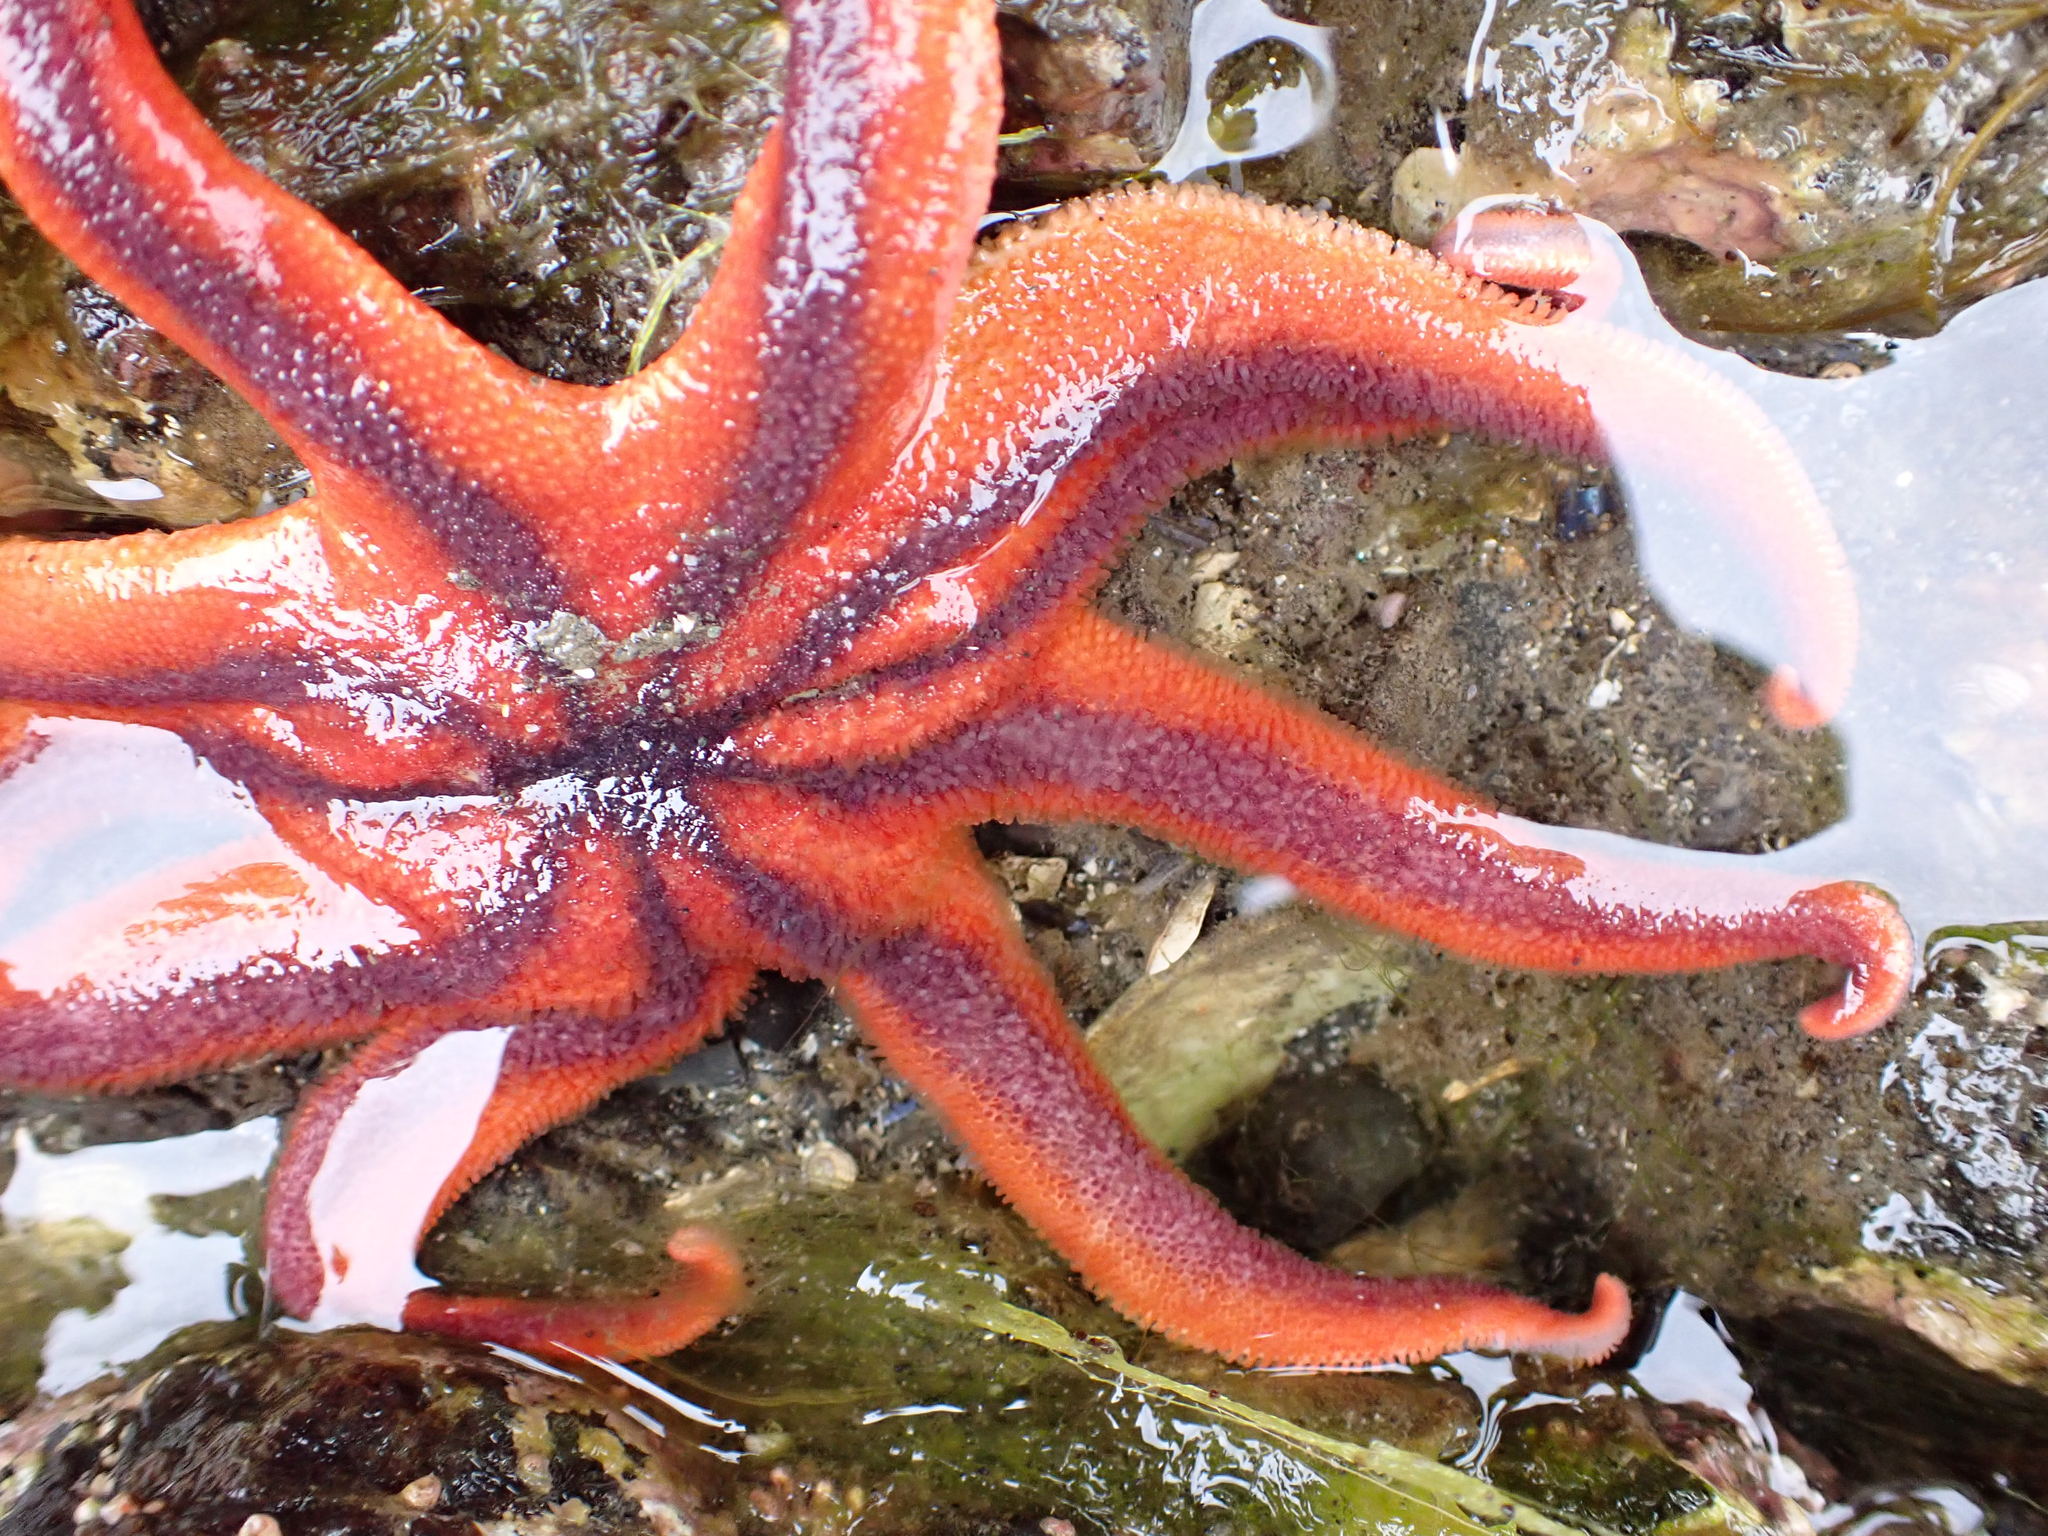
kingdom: Animalia
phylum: Echinodermata
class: Asteroidea
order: Valvatida
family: Solasteridae
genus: Solaster
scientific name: Solaster stimpsoni
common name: Orange sun star
